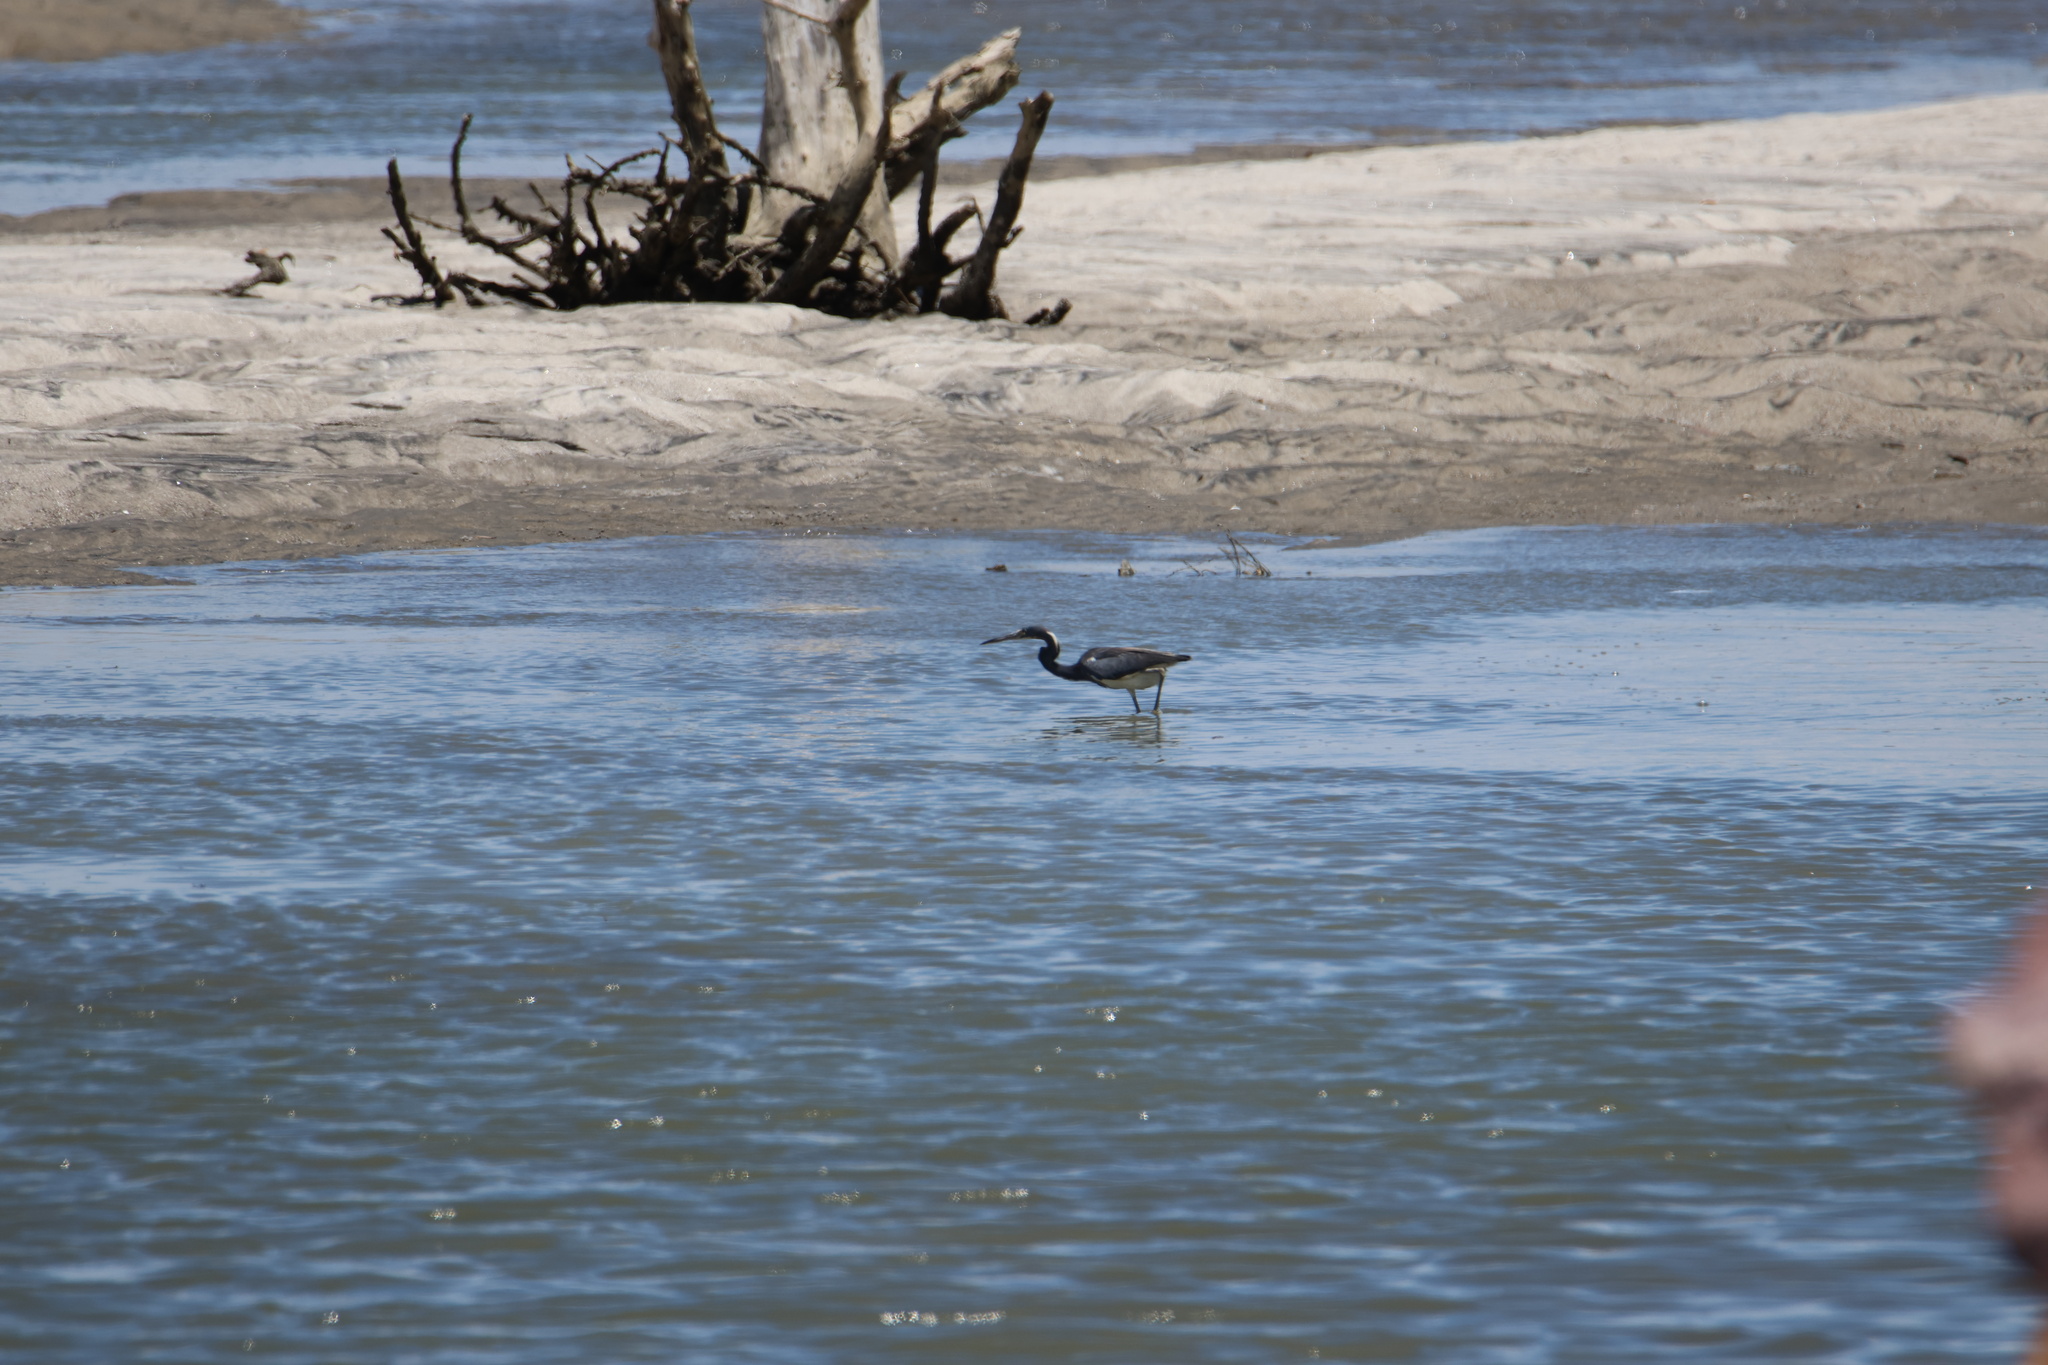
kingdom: Animalia
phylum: Chordata
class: Aves
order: Pelecaniformes
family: Ardeidae
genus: Egretta
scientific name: Egretta tricolor
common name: Tricolored heron
